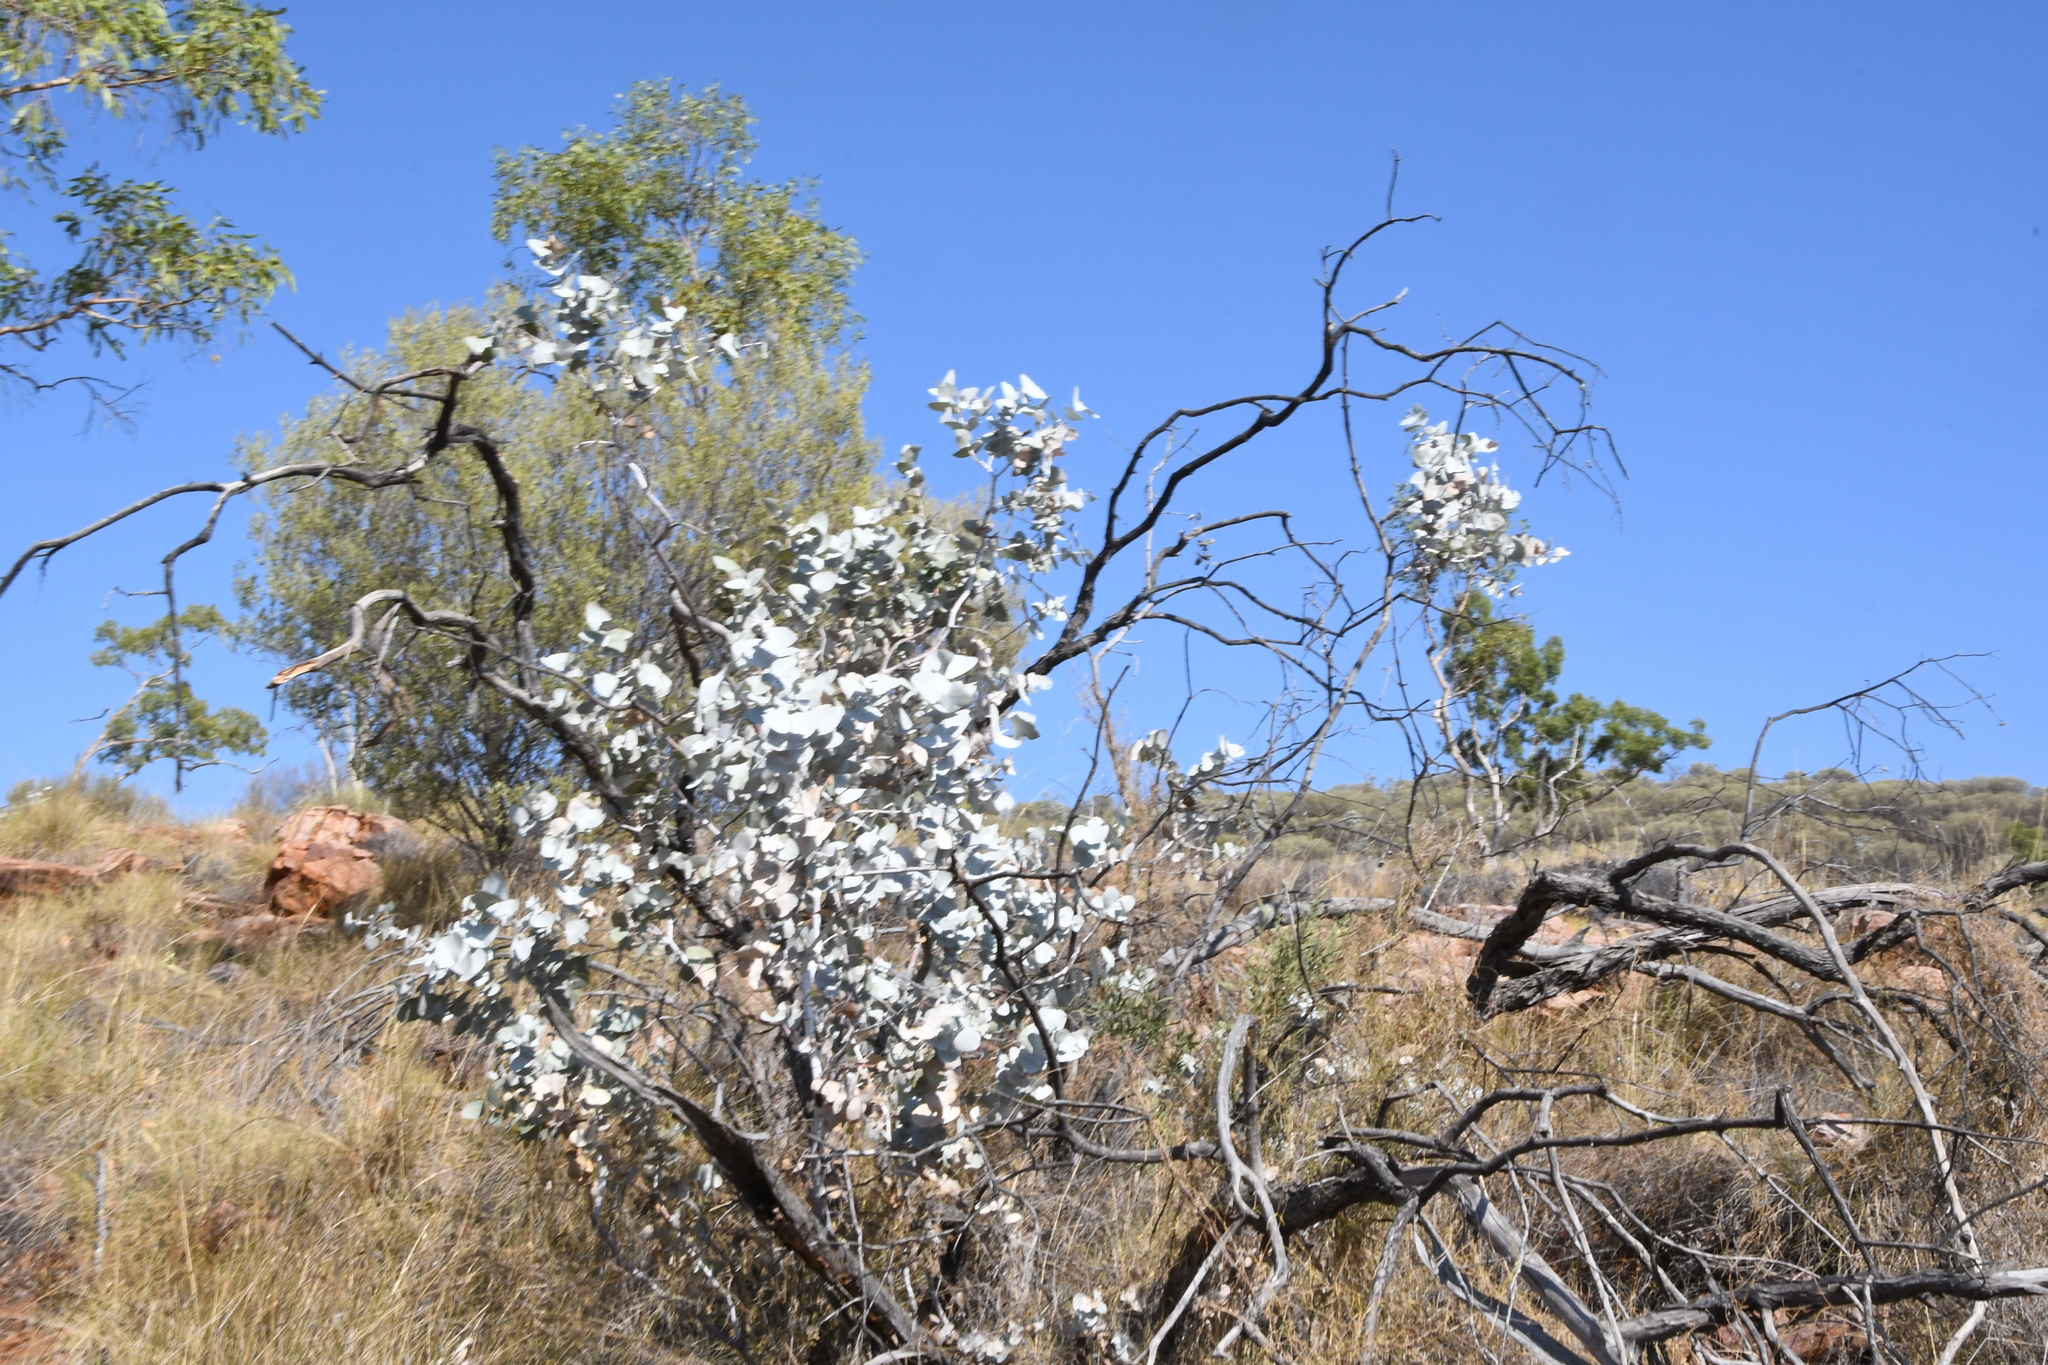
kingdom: Plantae
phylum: Tracheophyta
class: Magnoliopsida
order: Myrtales
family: Myrtaceae
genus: Eucalyptus
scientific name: Eucalyptus gamophylla
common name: Blue mallee
